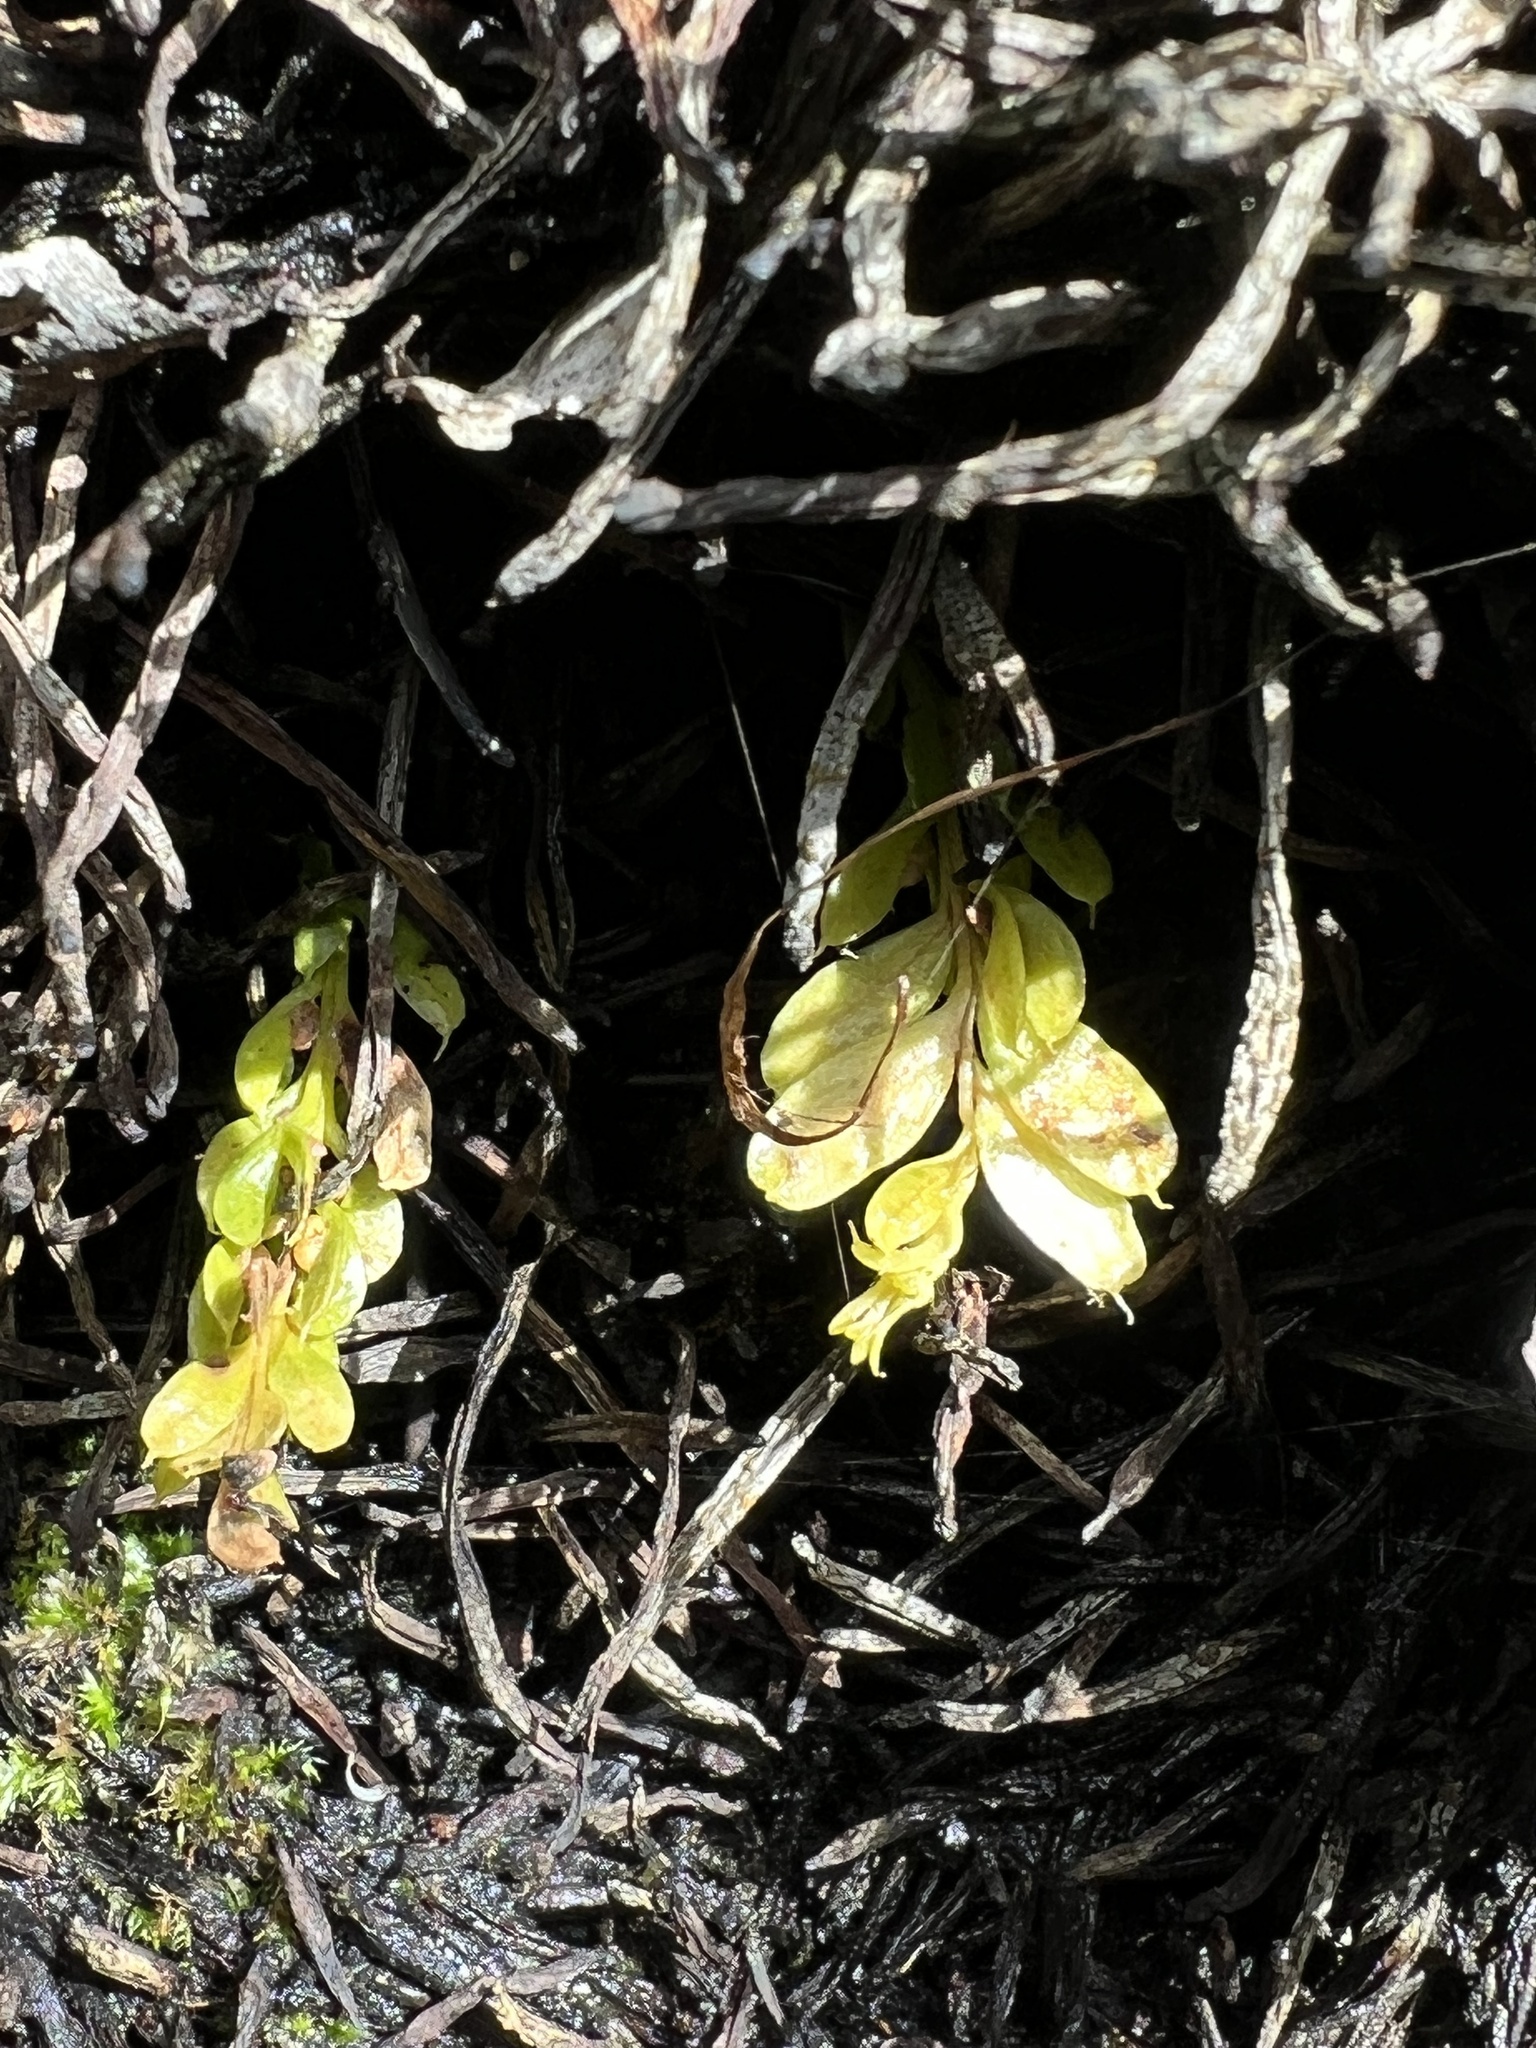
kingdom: Plantae
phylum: Tracheophyta
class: Polypodiopsida
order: Psilotales
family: Psilotaceae
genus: Tmesipteris
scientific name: Tmesipteris lanceolata
